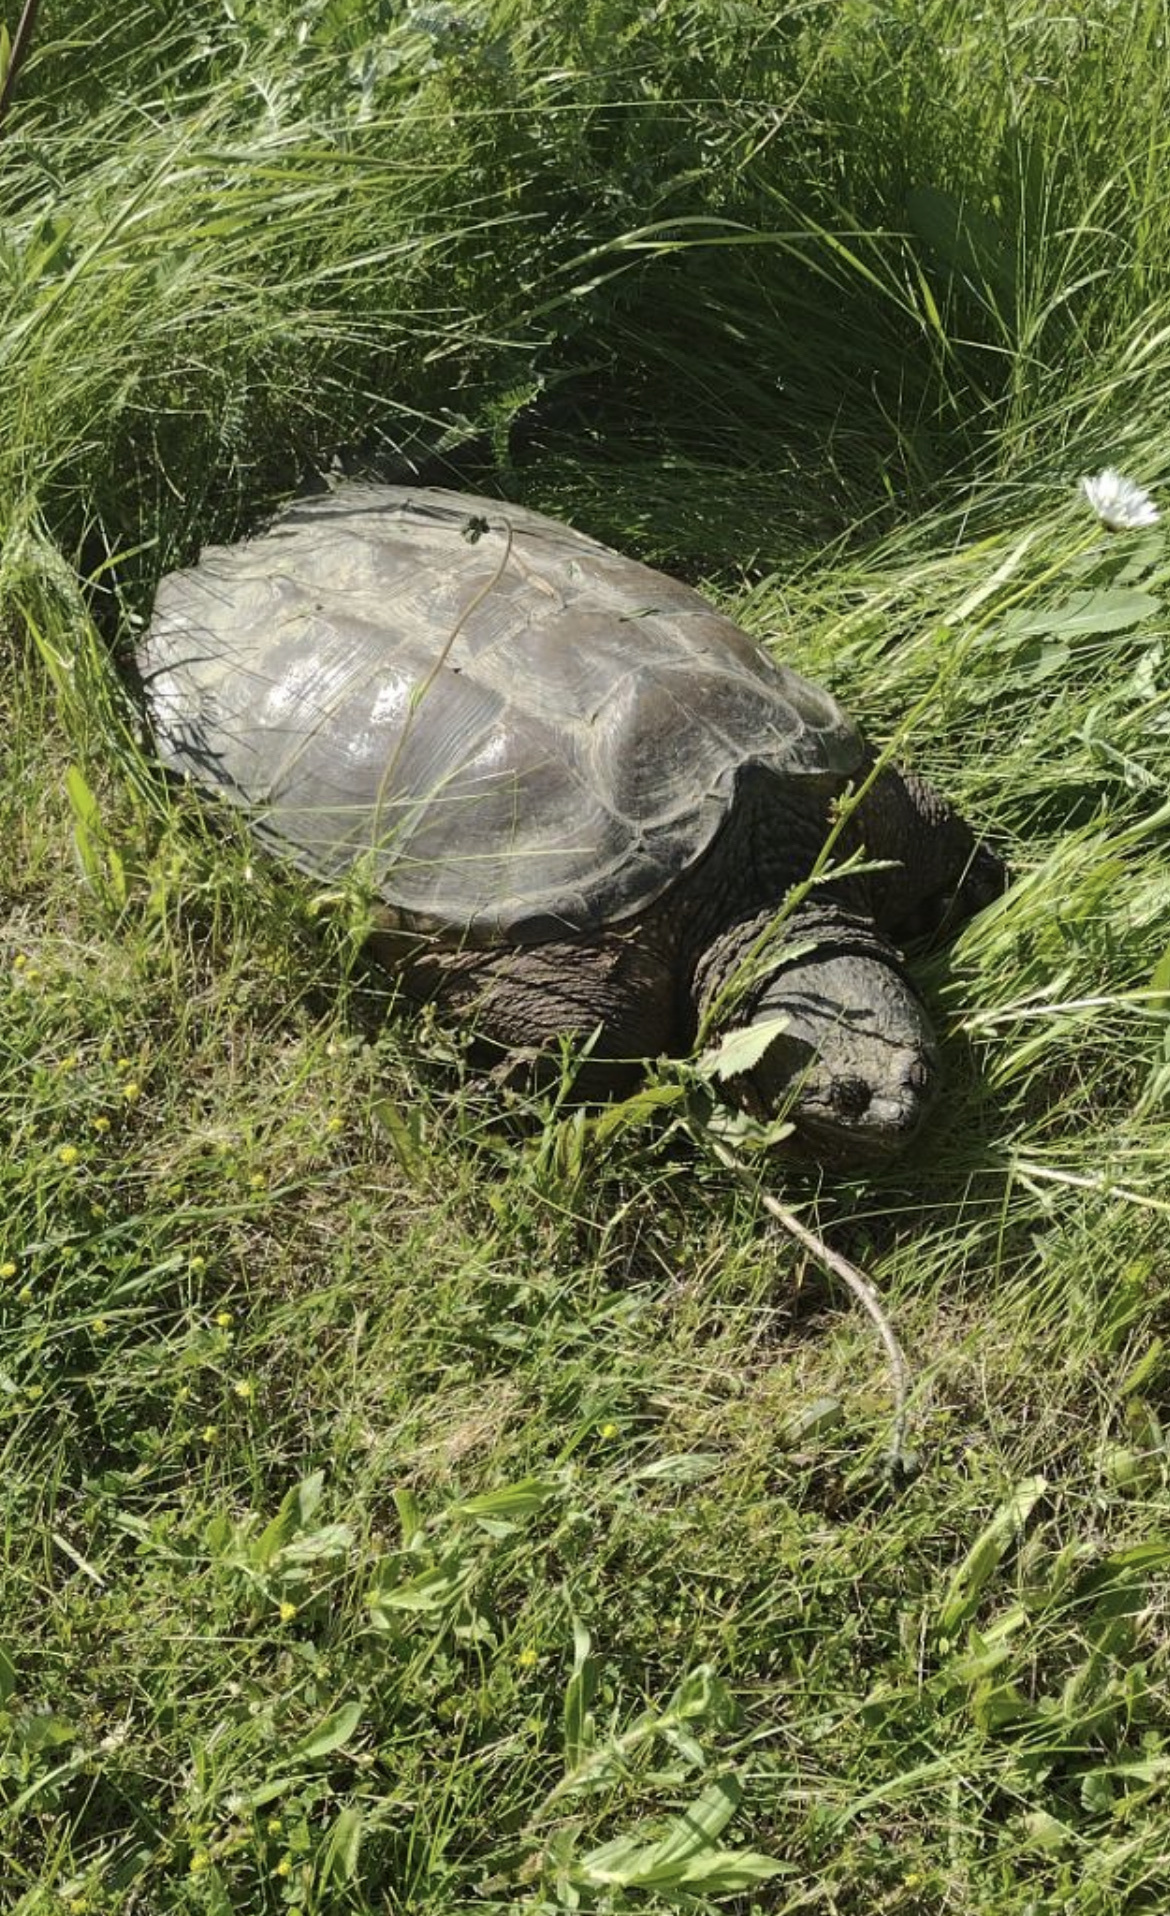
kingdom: Animalia
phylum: Chordata
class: Testudines
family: Chelydridae
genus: Chelydra
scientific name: Chelydra serpentina
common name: Common snapping turtle
